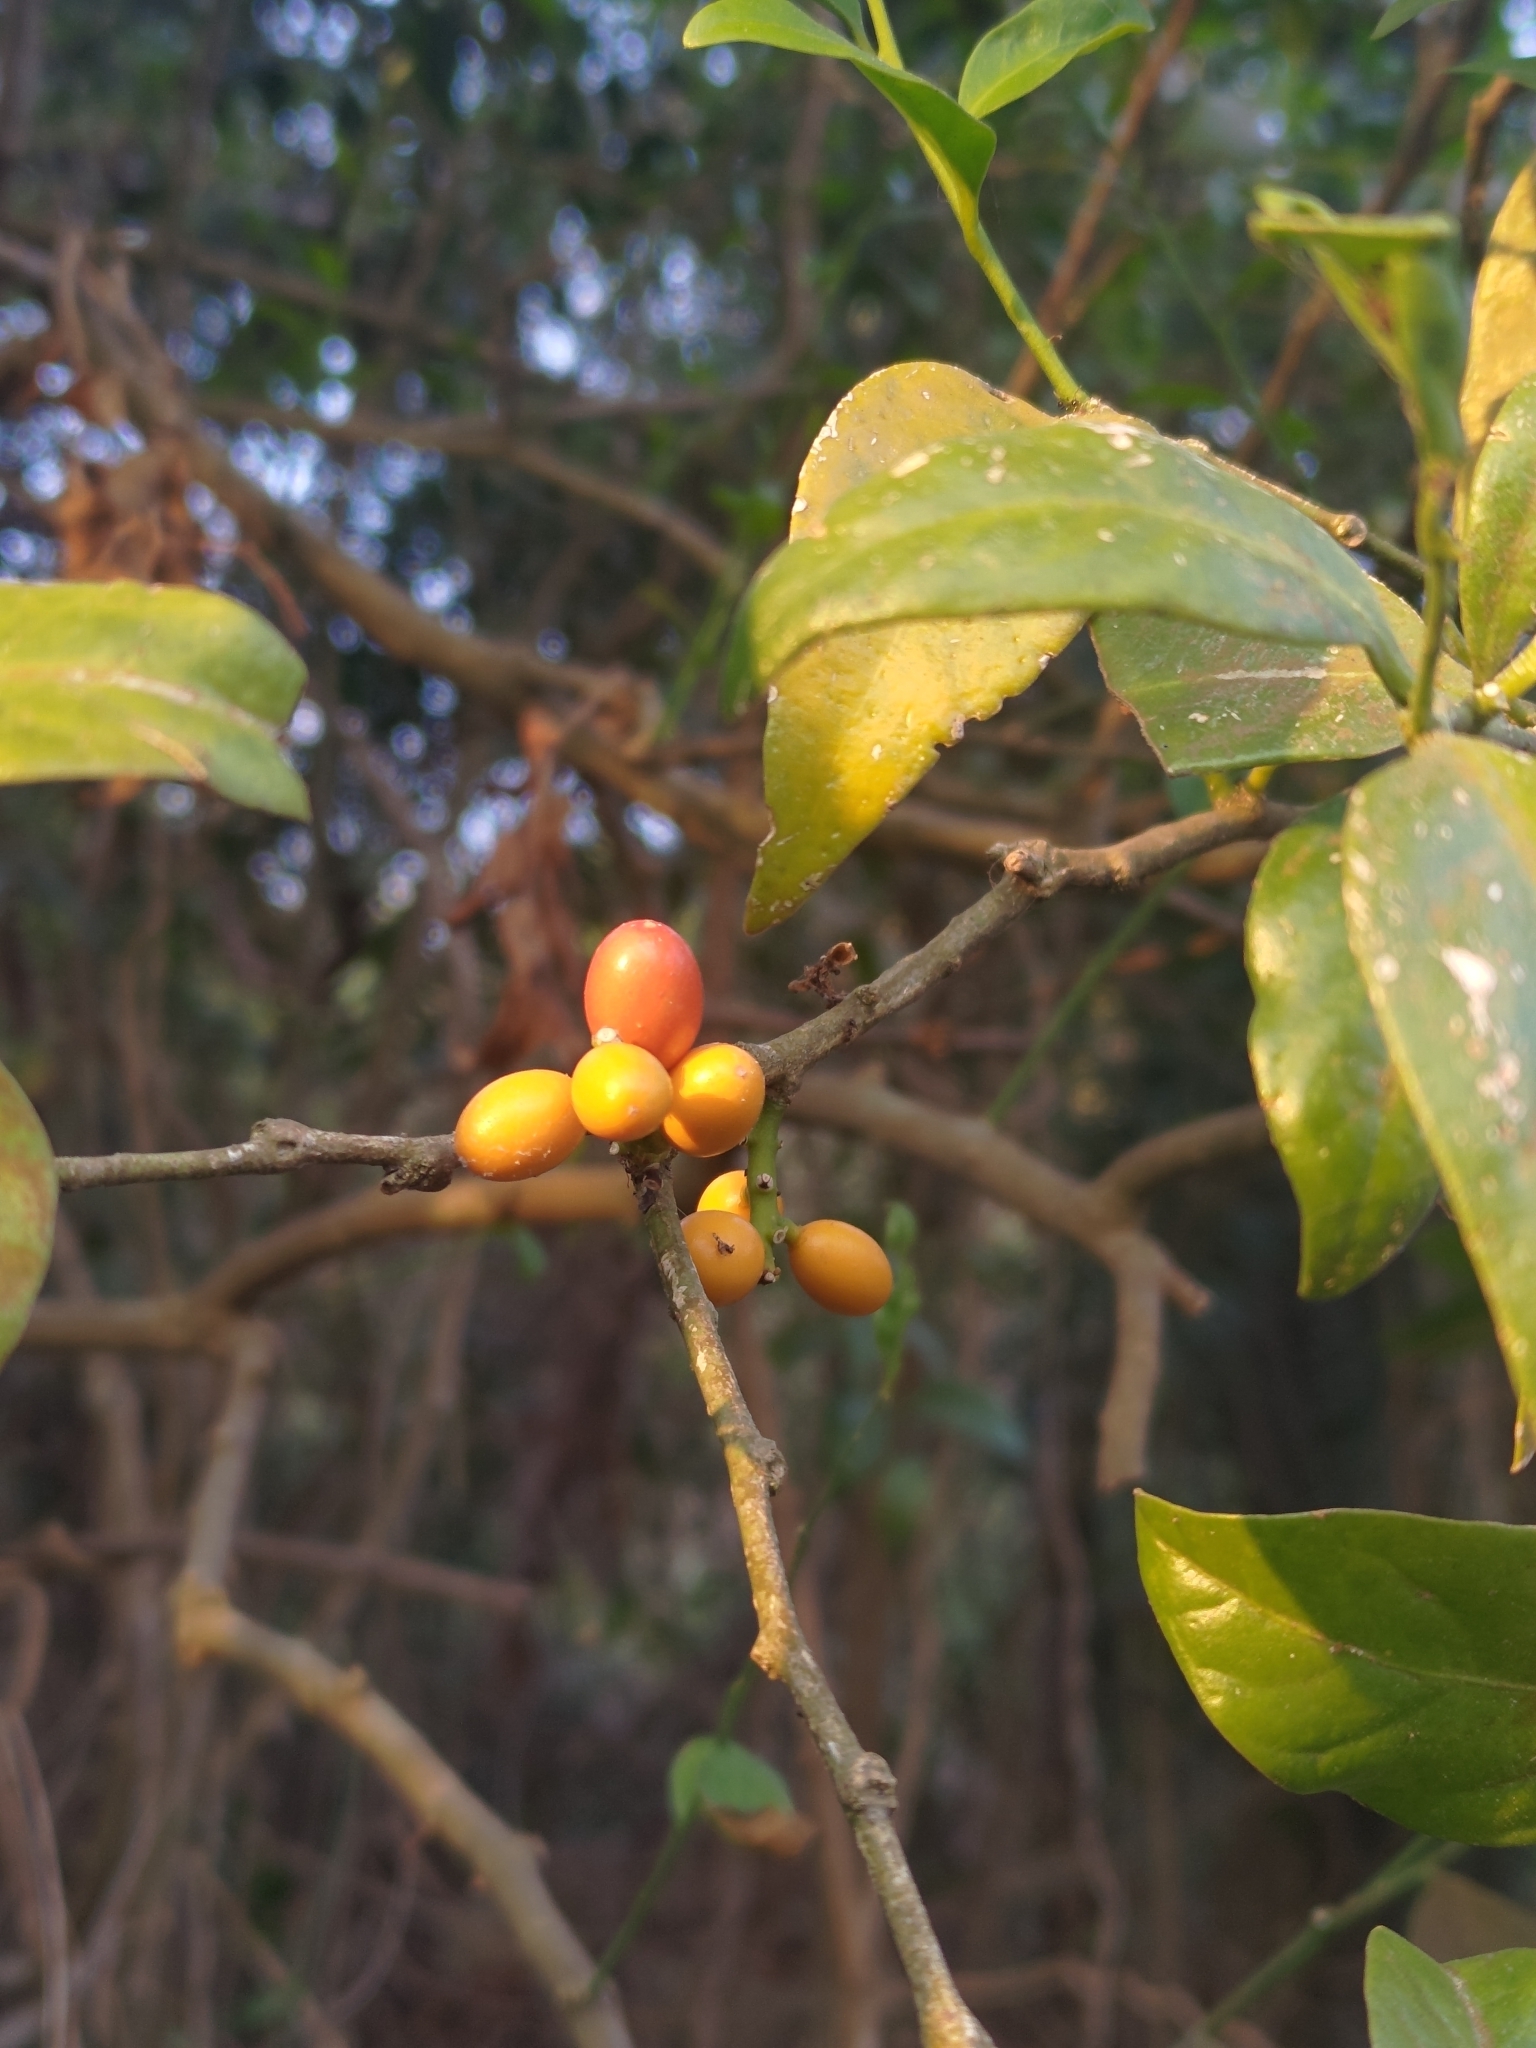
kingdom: Plantae
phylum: Tracheophyta
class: Magnoliopsida
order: Santalales
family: Opiliaceae
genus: Champereia
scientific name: Champereia manillana
